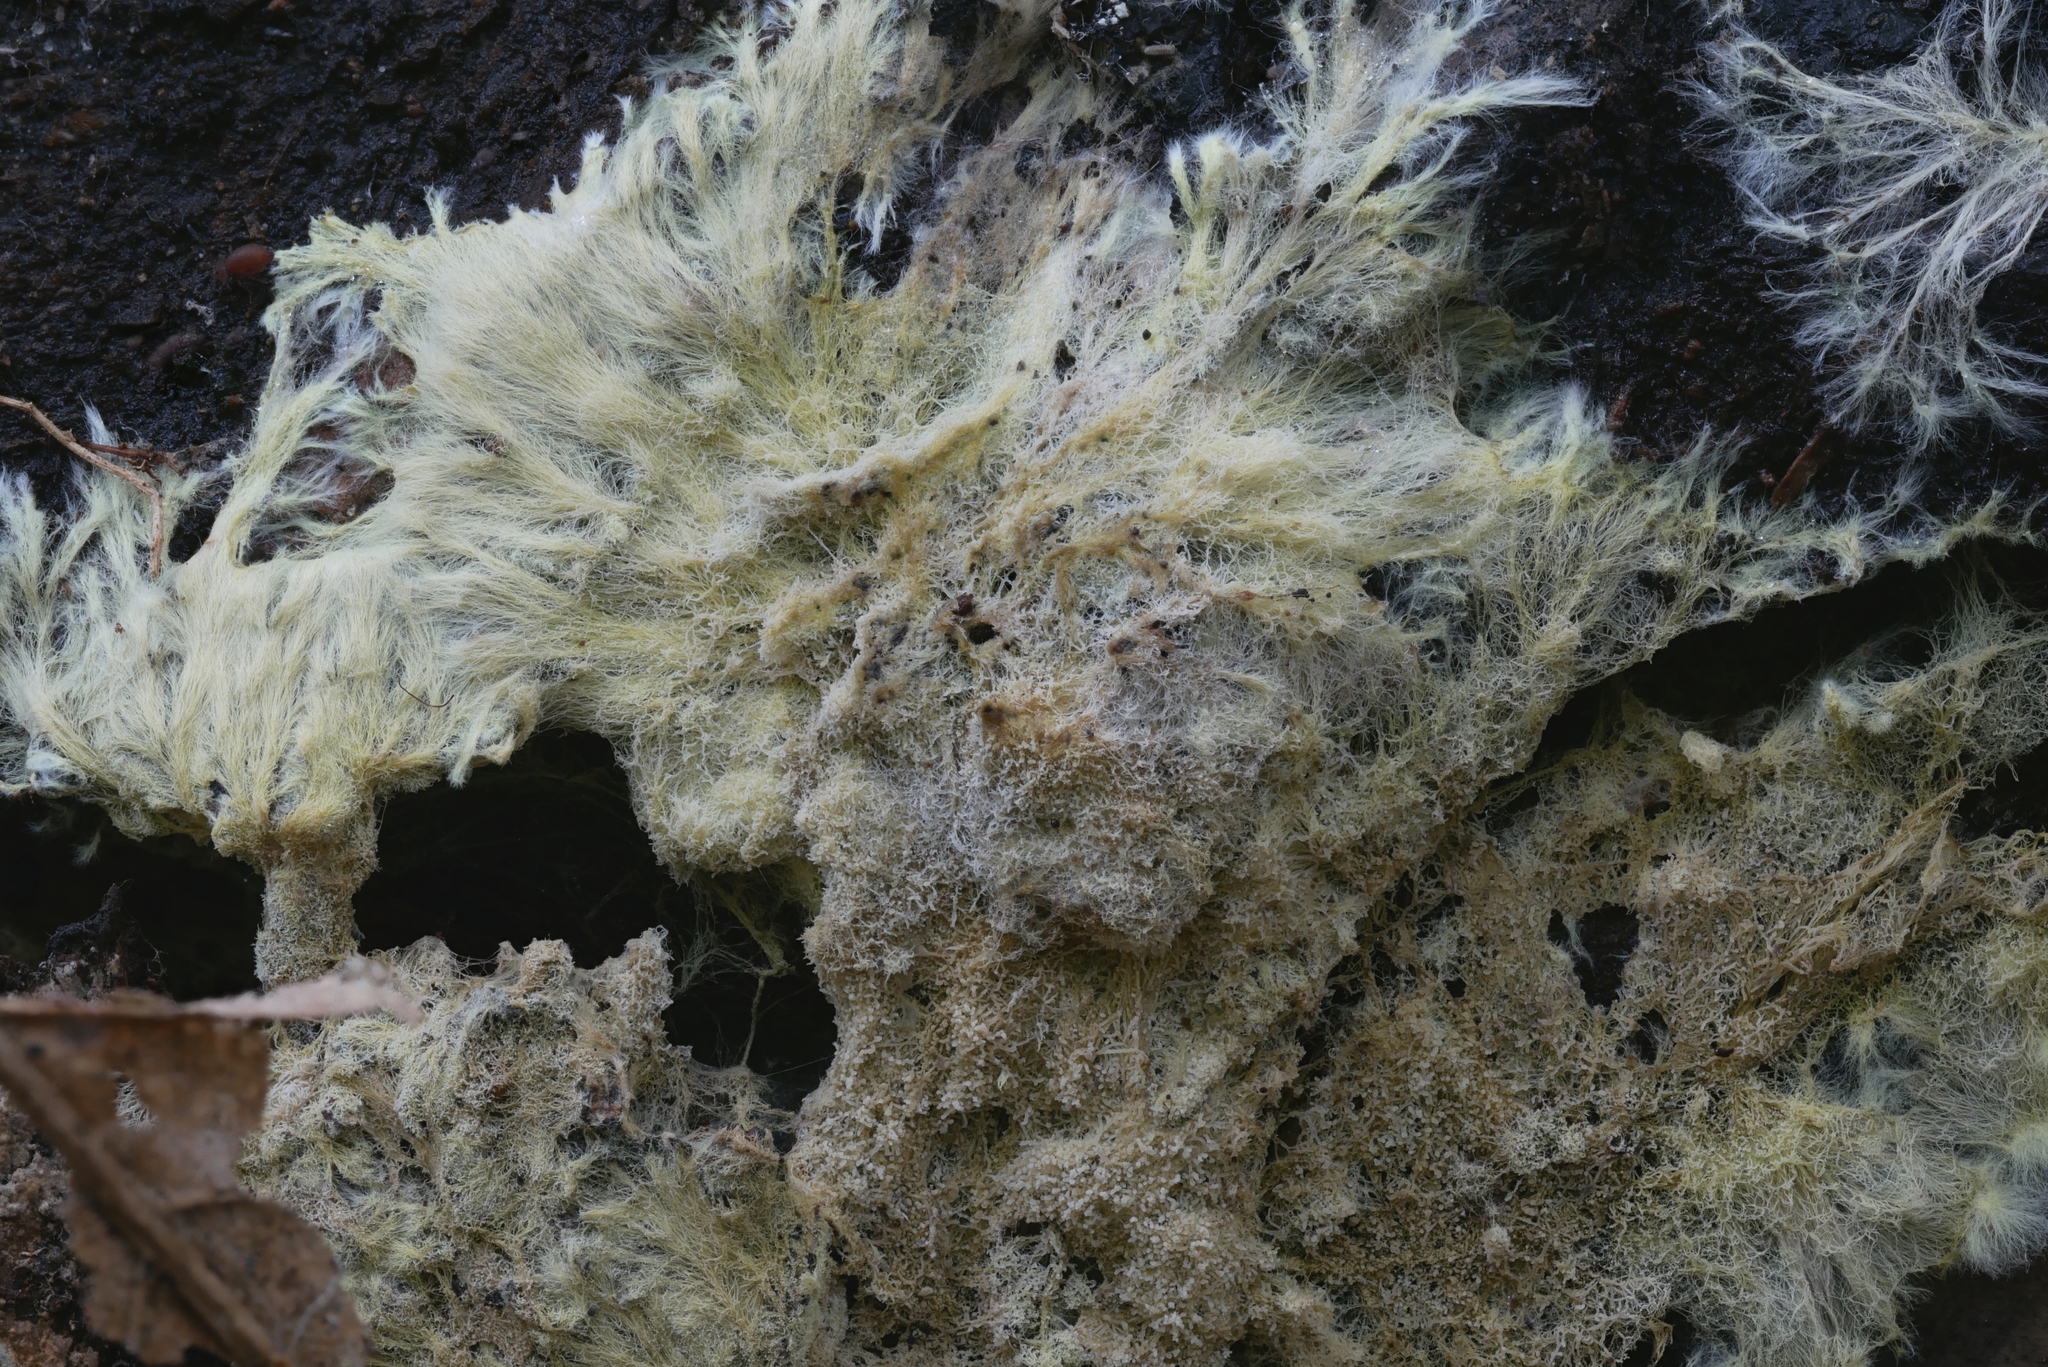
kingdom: Fungi
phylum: Basidiomycota
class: Agaricomycetes
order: Russulales
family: Xenasmataceae
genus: Xenasmatella
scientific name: Xenasmatella vaga
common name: Yellow cobweb
